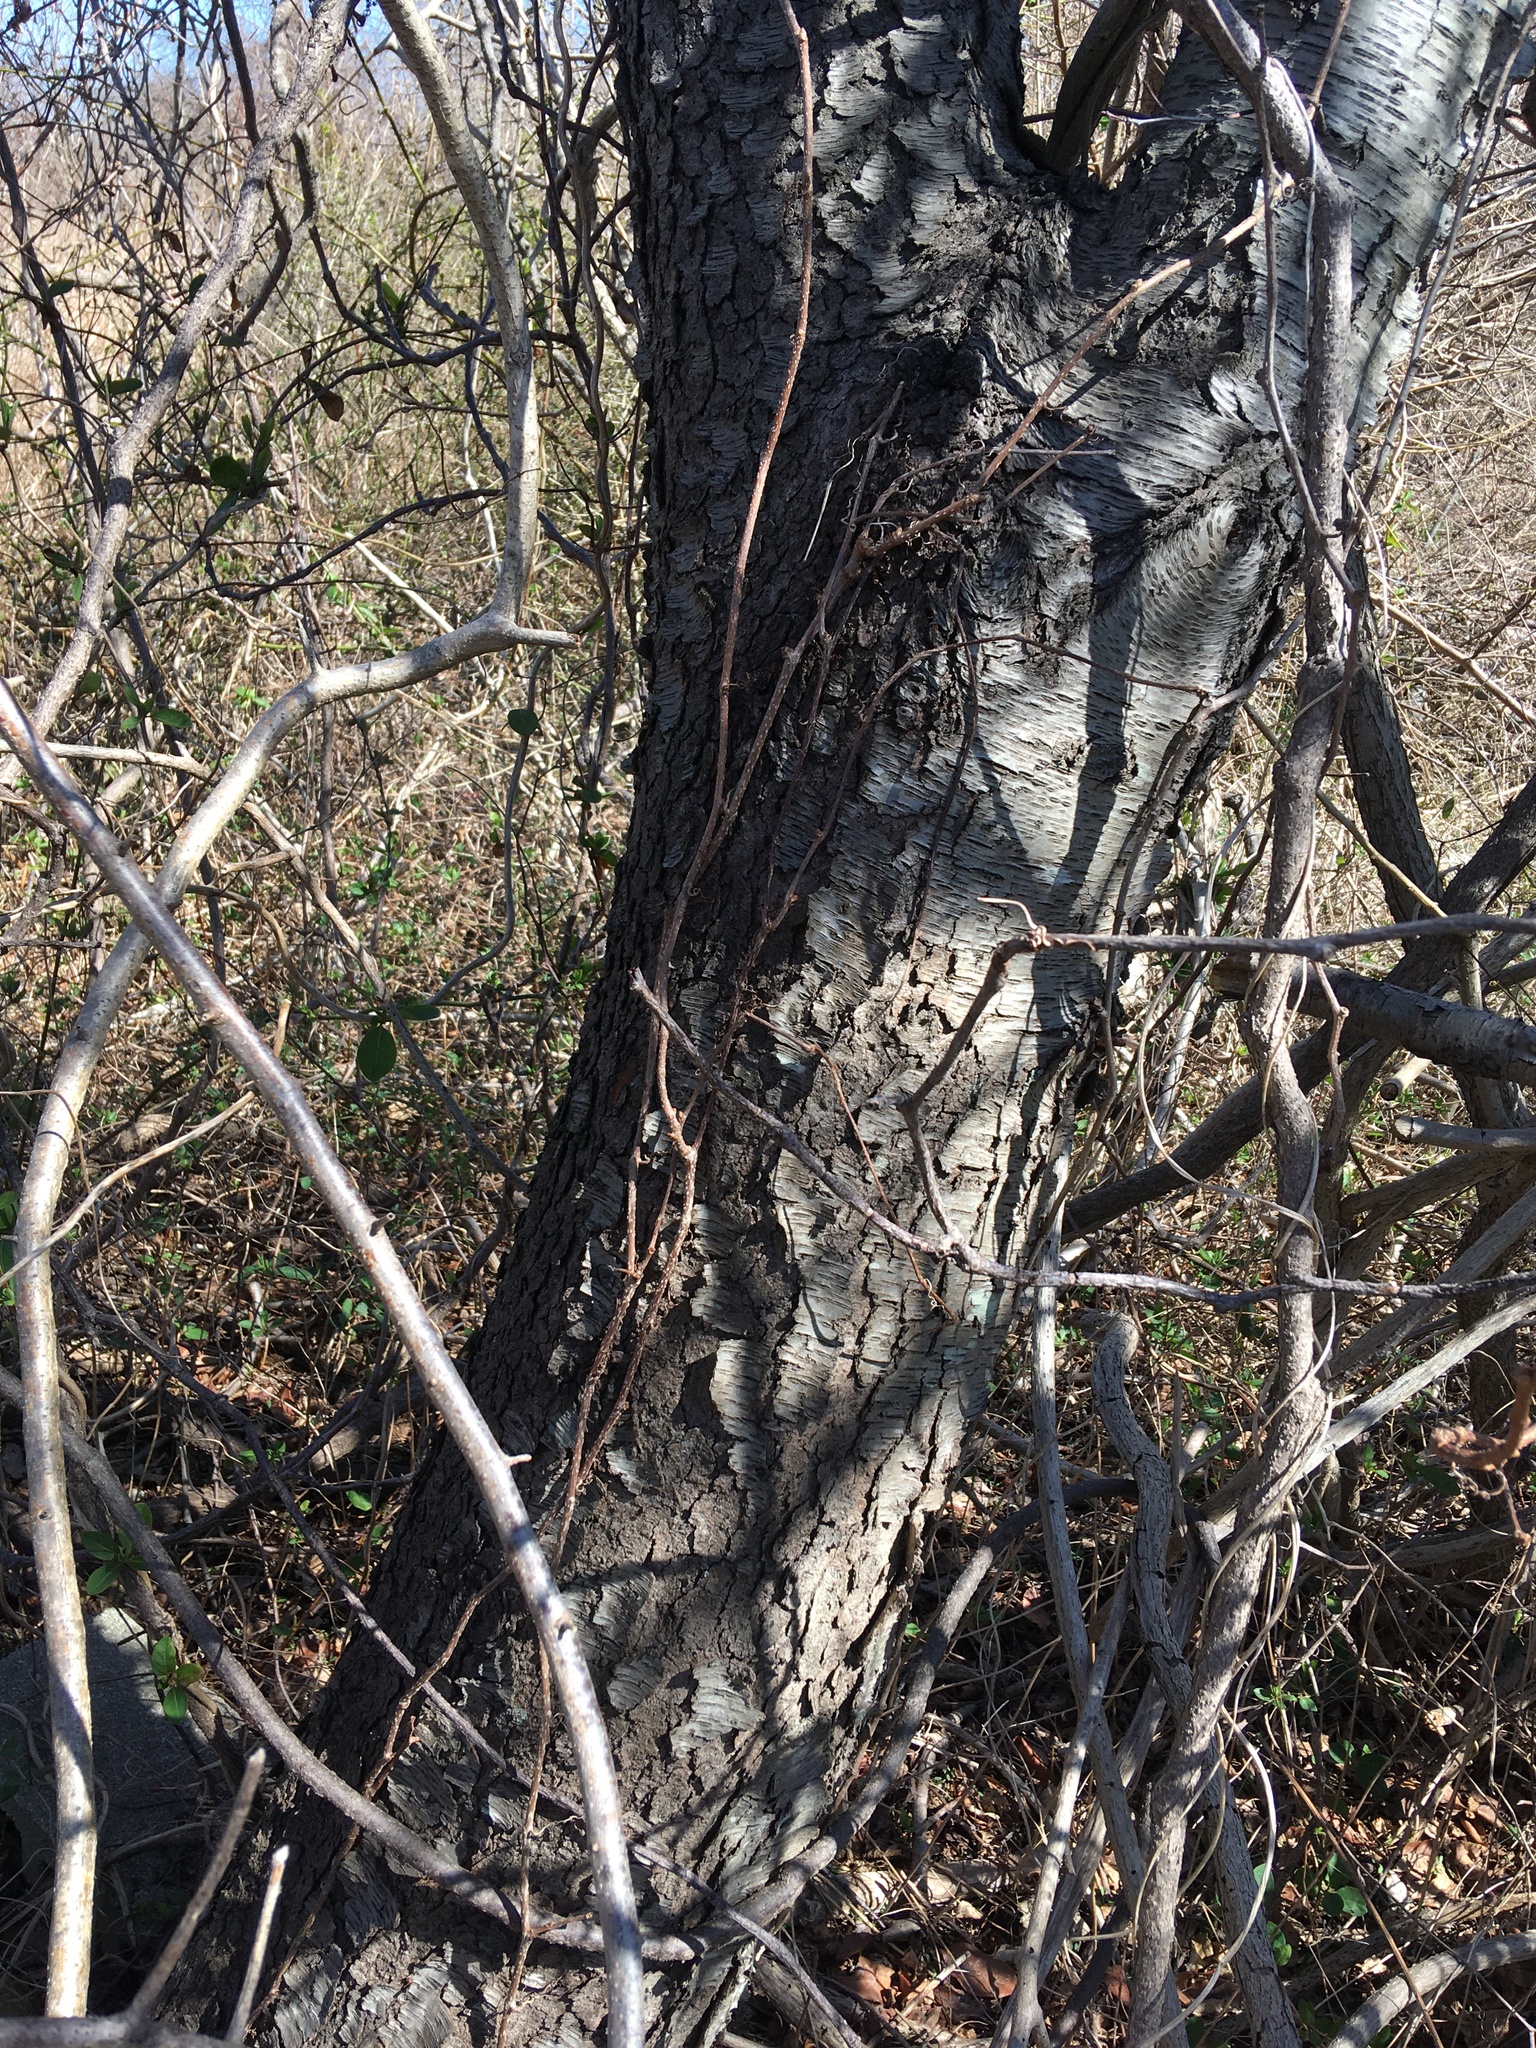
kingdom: Plantae
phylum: Tracheophyta
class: Magnoliopsida
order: Rosales
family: Rosaceae
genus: Prunus
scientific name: Prunus serotina
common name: Black cherry
